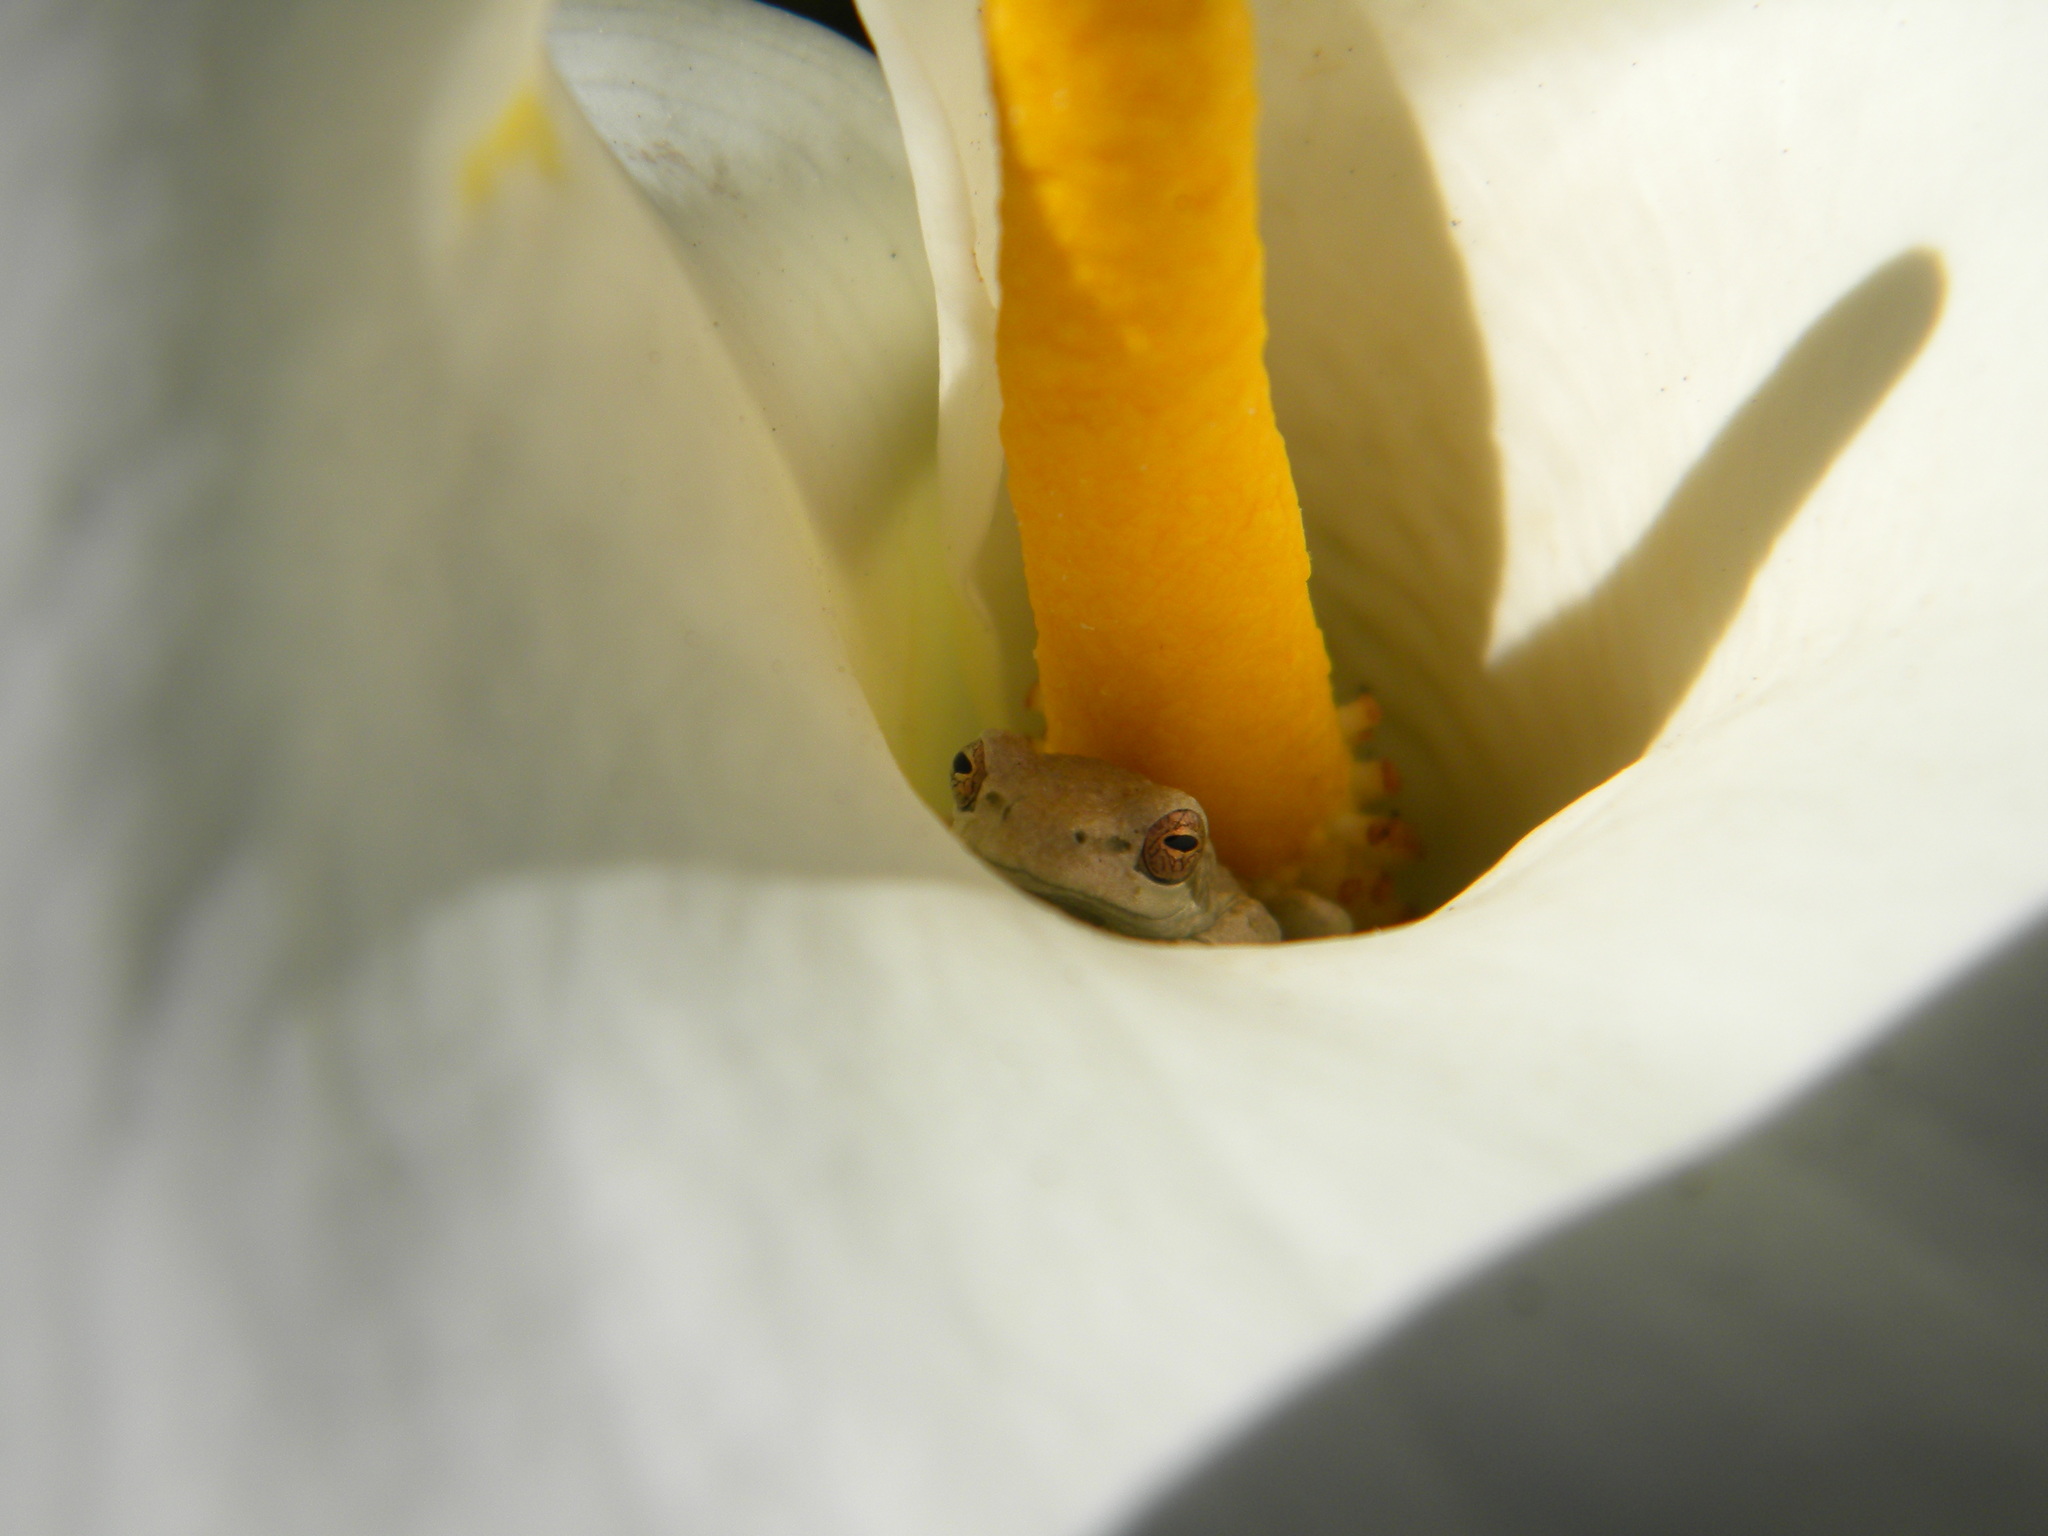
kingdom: Animalia
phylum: Chordata
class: Amphibia
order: Anura
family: Hyperoliidae
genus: Hyperolius
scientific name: Hyperolius marmoratus
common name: Painted reed frog
